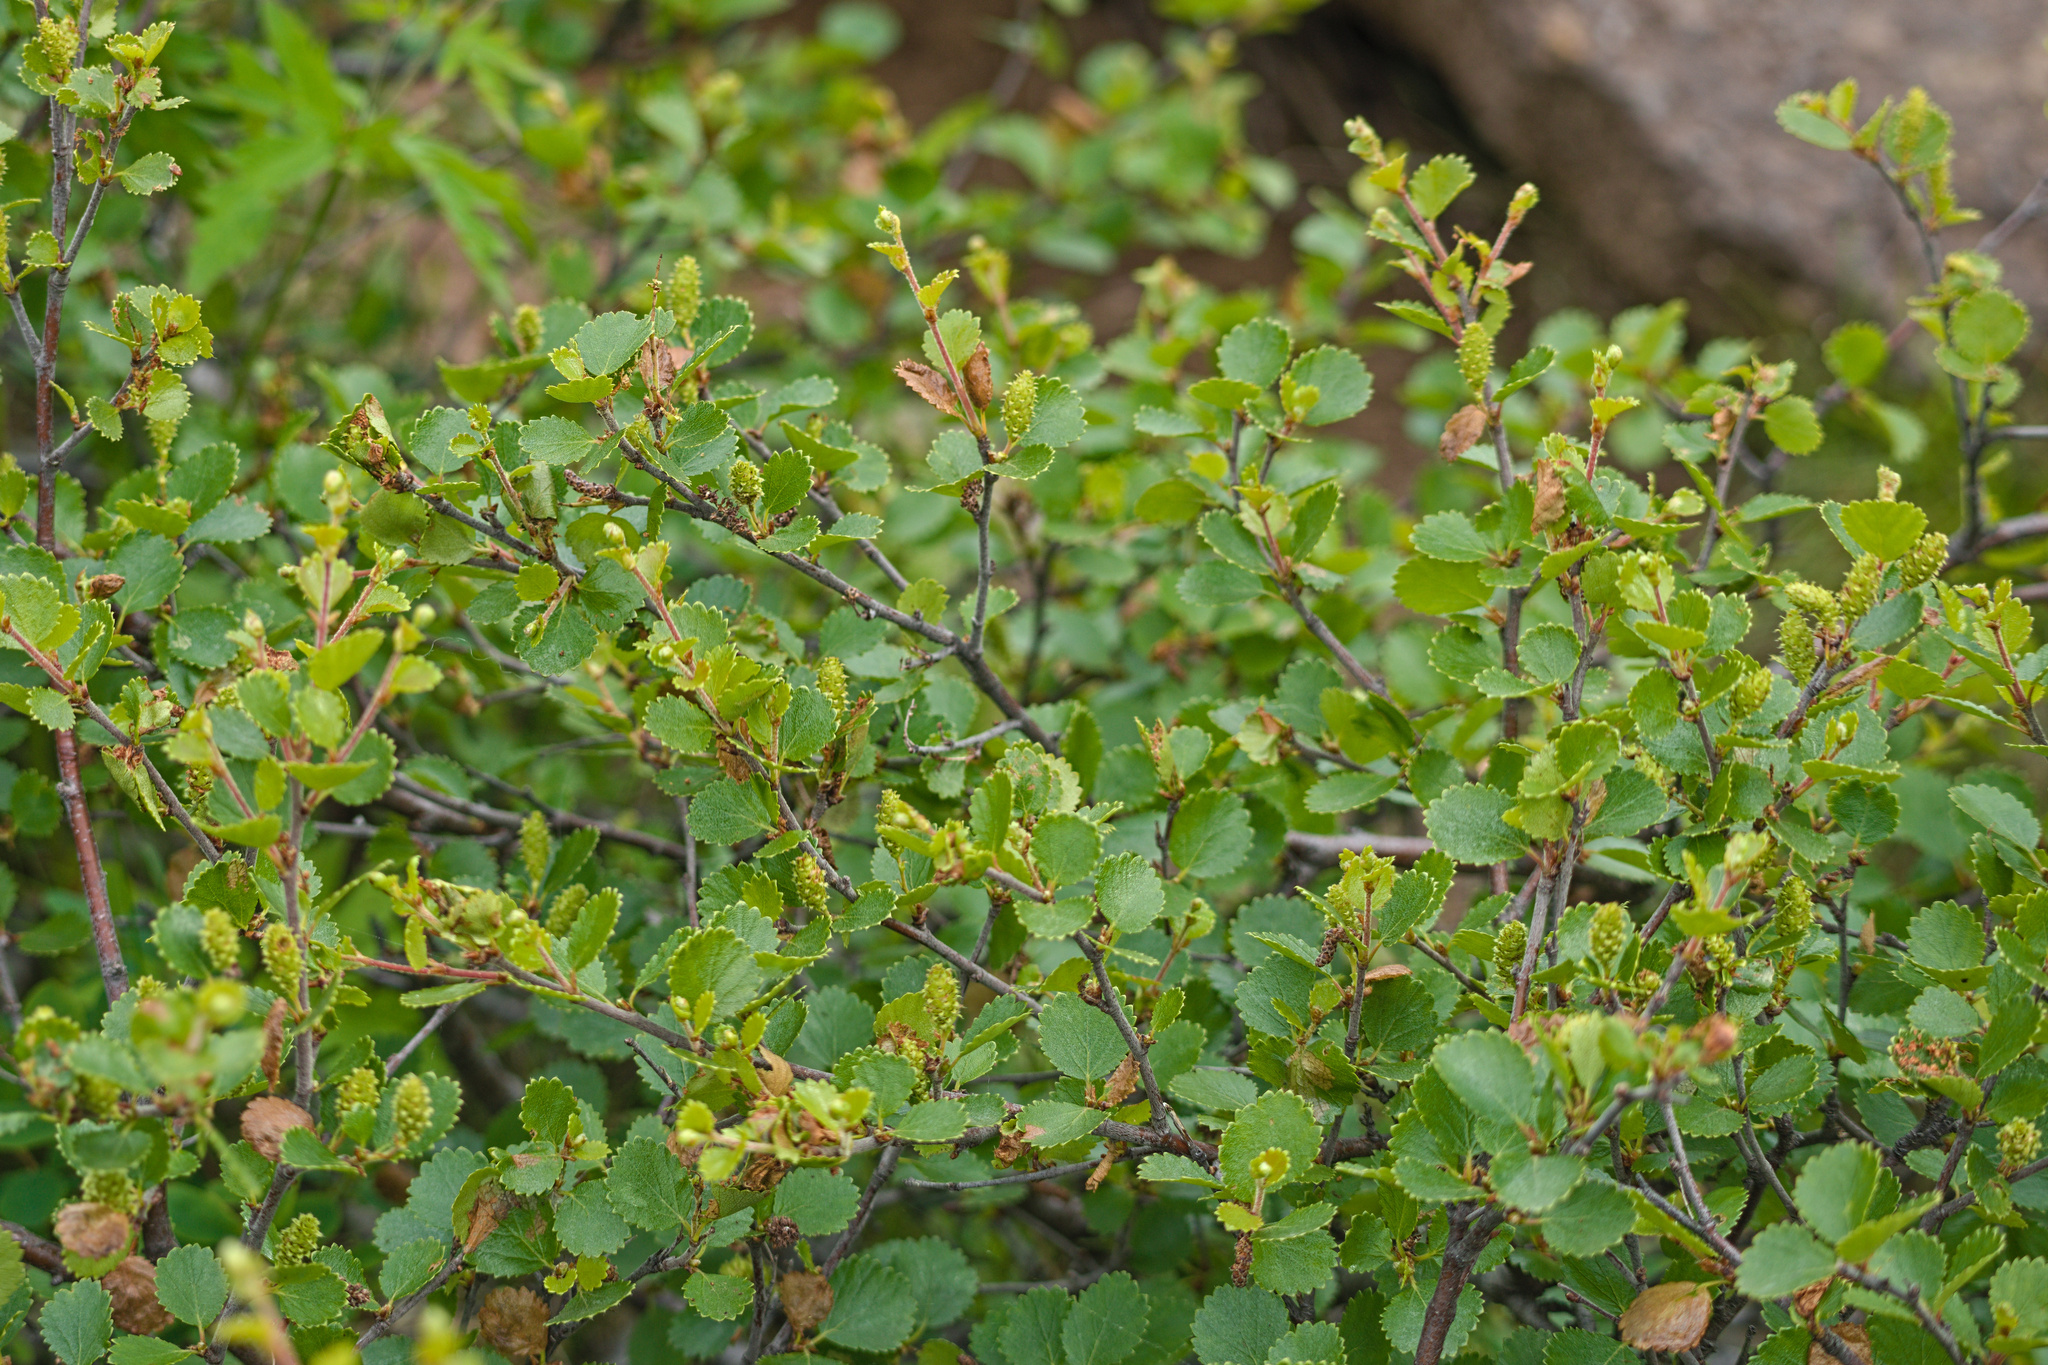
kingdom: Plantae
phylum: Tracheophyta
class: Magnoliopsida
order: Fagales
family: Betulaceae
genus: Betula
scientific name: Betula nana
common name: Arctic dwarf birch
